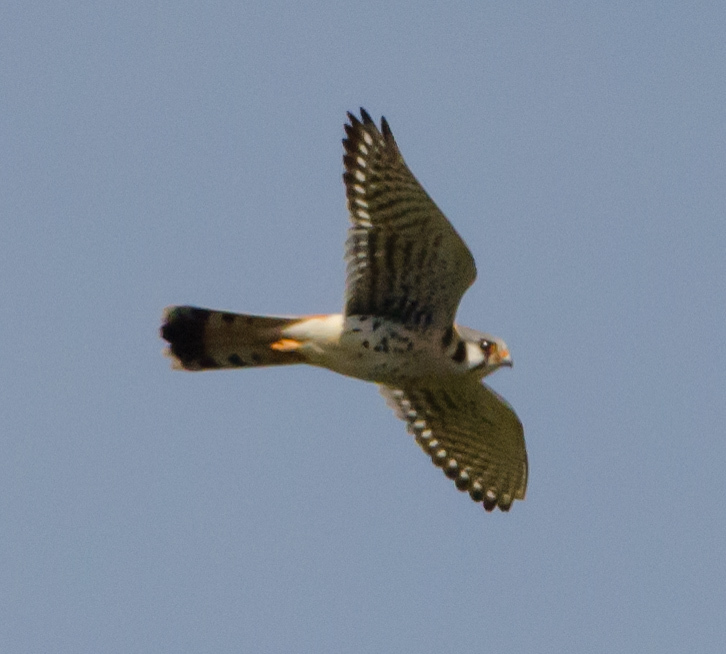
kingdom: Animalia
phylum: Chordata
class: Aves
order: Falconiformes
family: Falconidae
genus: Falco
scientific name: Falco sparverius
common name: American kestrel
